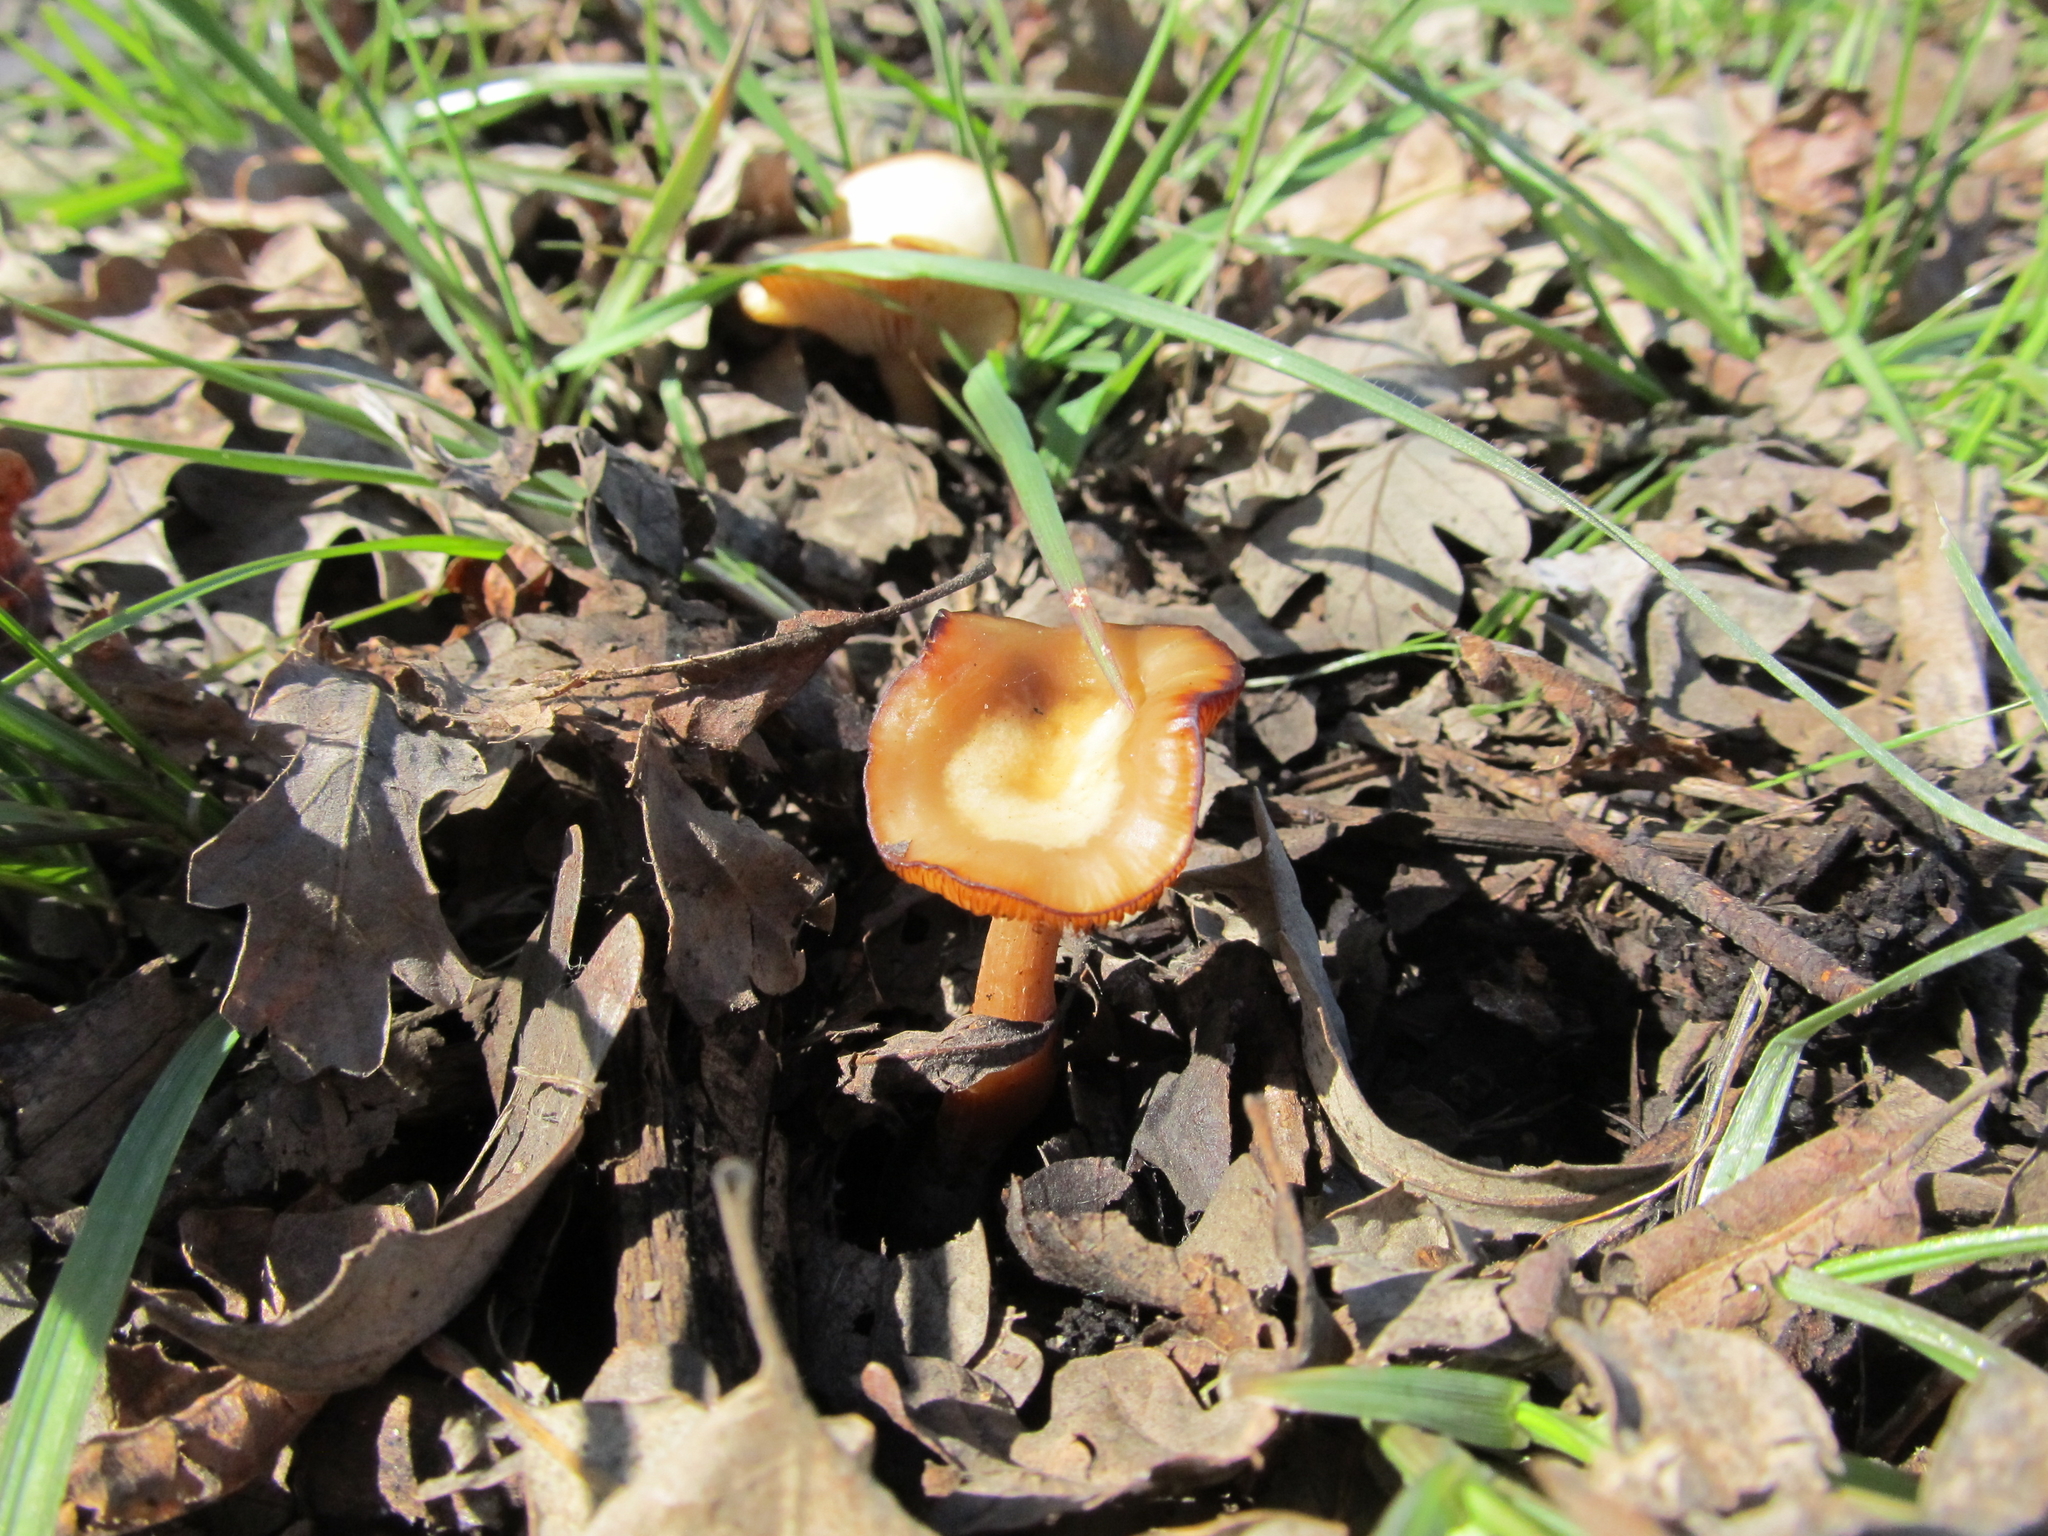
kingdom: Fungi
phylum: Basidiomycota
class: Agaricomycetes
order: Agaricales
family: Omphalotaceae
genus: Gymnopus
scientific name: Gymnopus dryophilus
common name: Penny top
